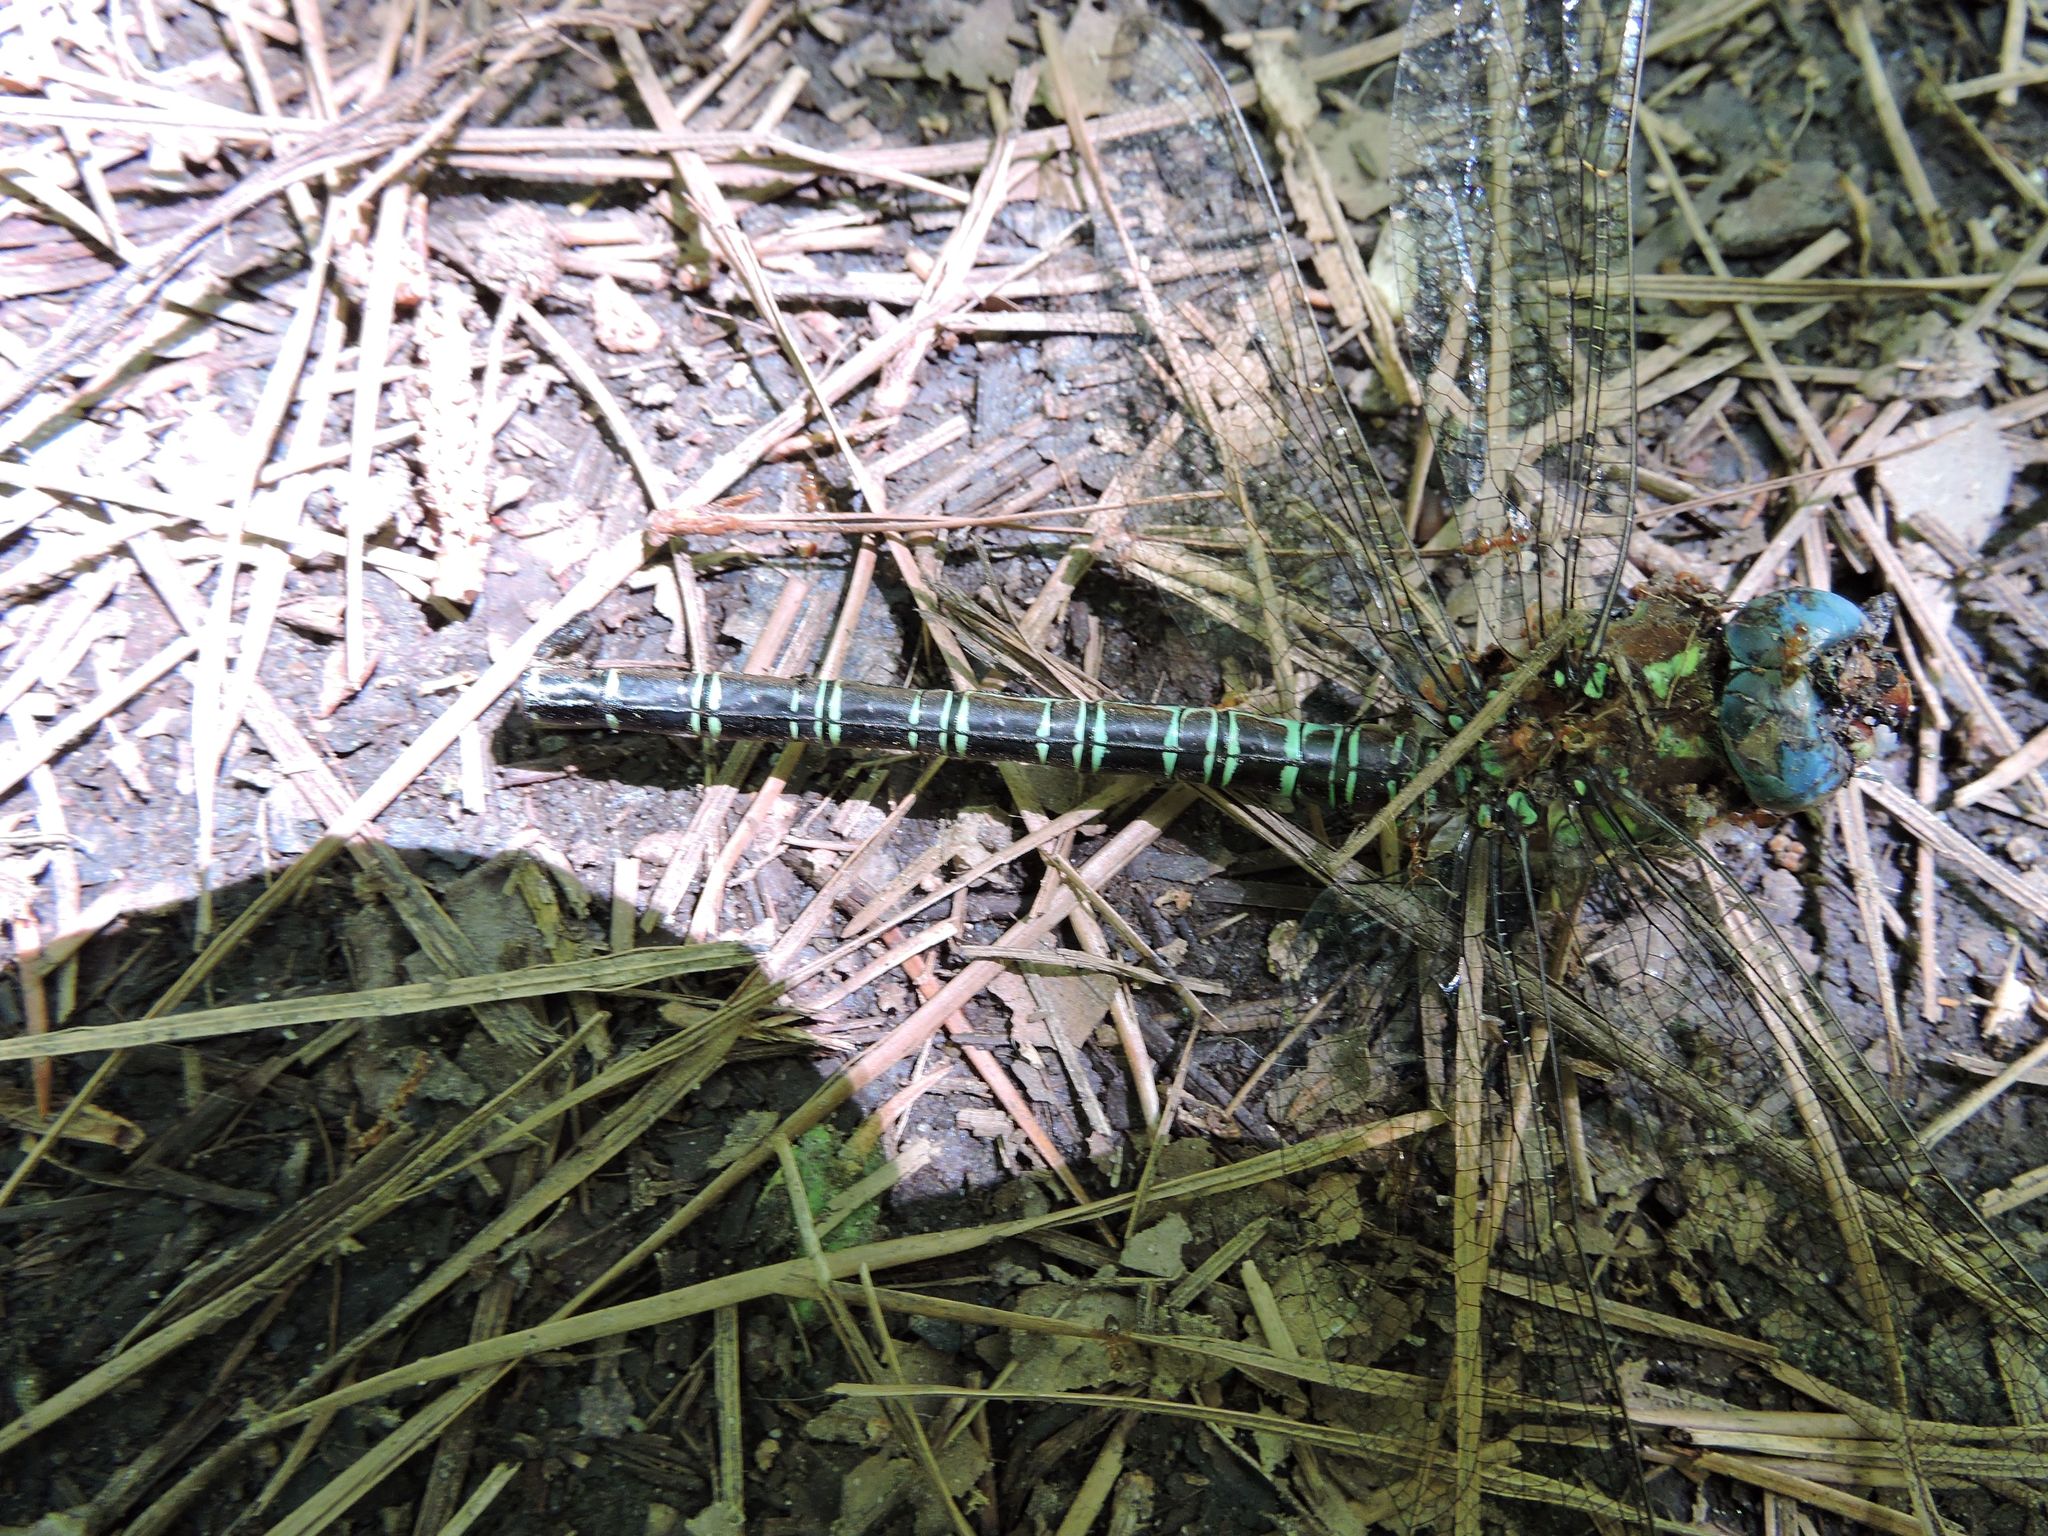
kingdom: Animalia
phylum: Arthropoda
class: Insecta
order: Odonata
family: Aeshnidae
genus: Epiaeschna
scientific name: Epiaeschna heros
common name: Swamp darner
